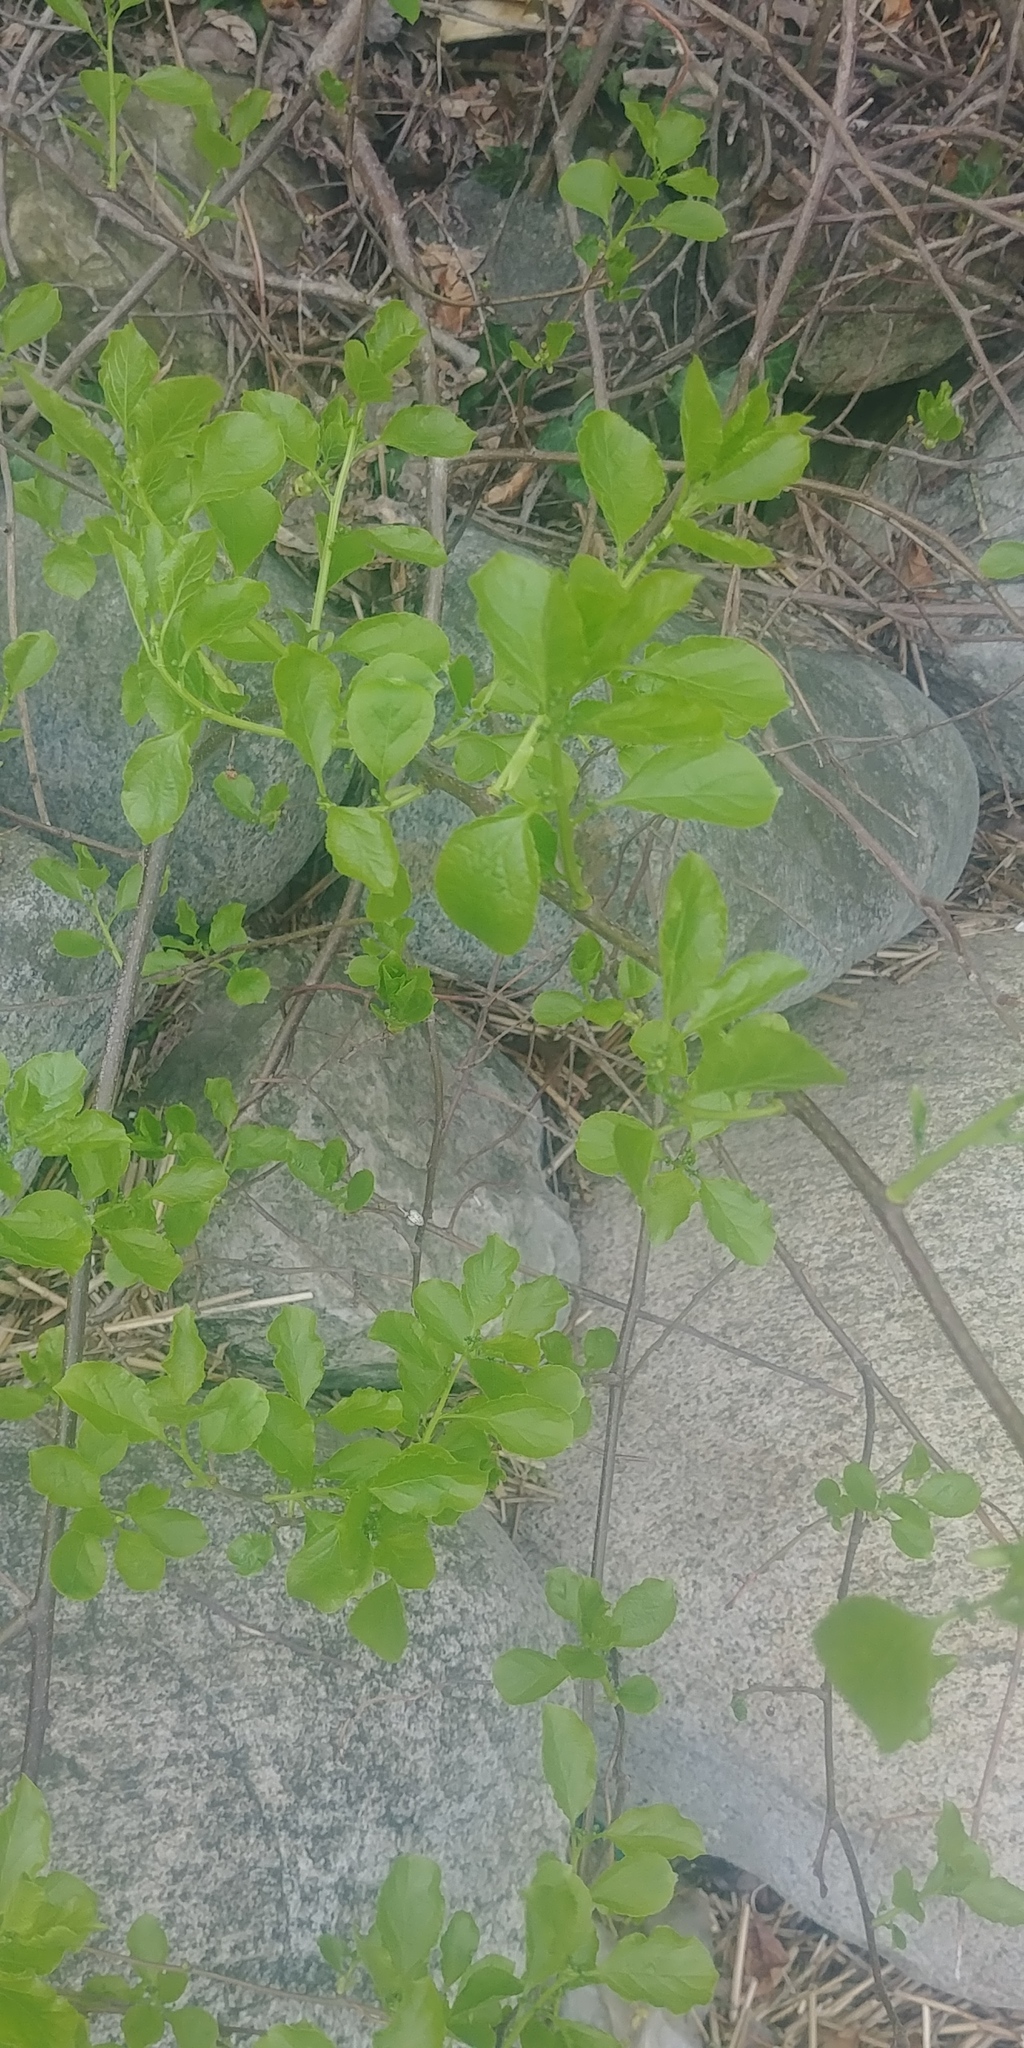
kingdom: Plantae
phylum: Tracheophyta
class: Magnoliopsida
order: Celastrales
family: Celastraceae
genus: Celastrus
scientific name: Celastrus orbiculatus
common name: Oriental bittersweet
